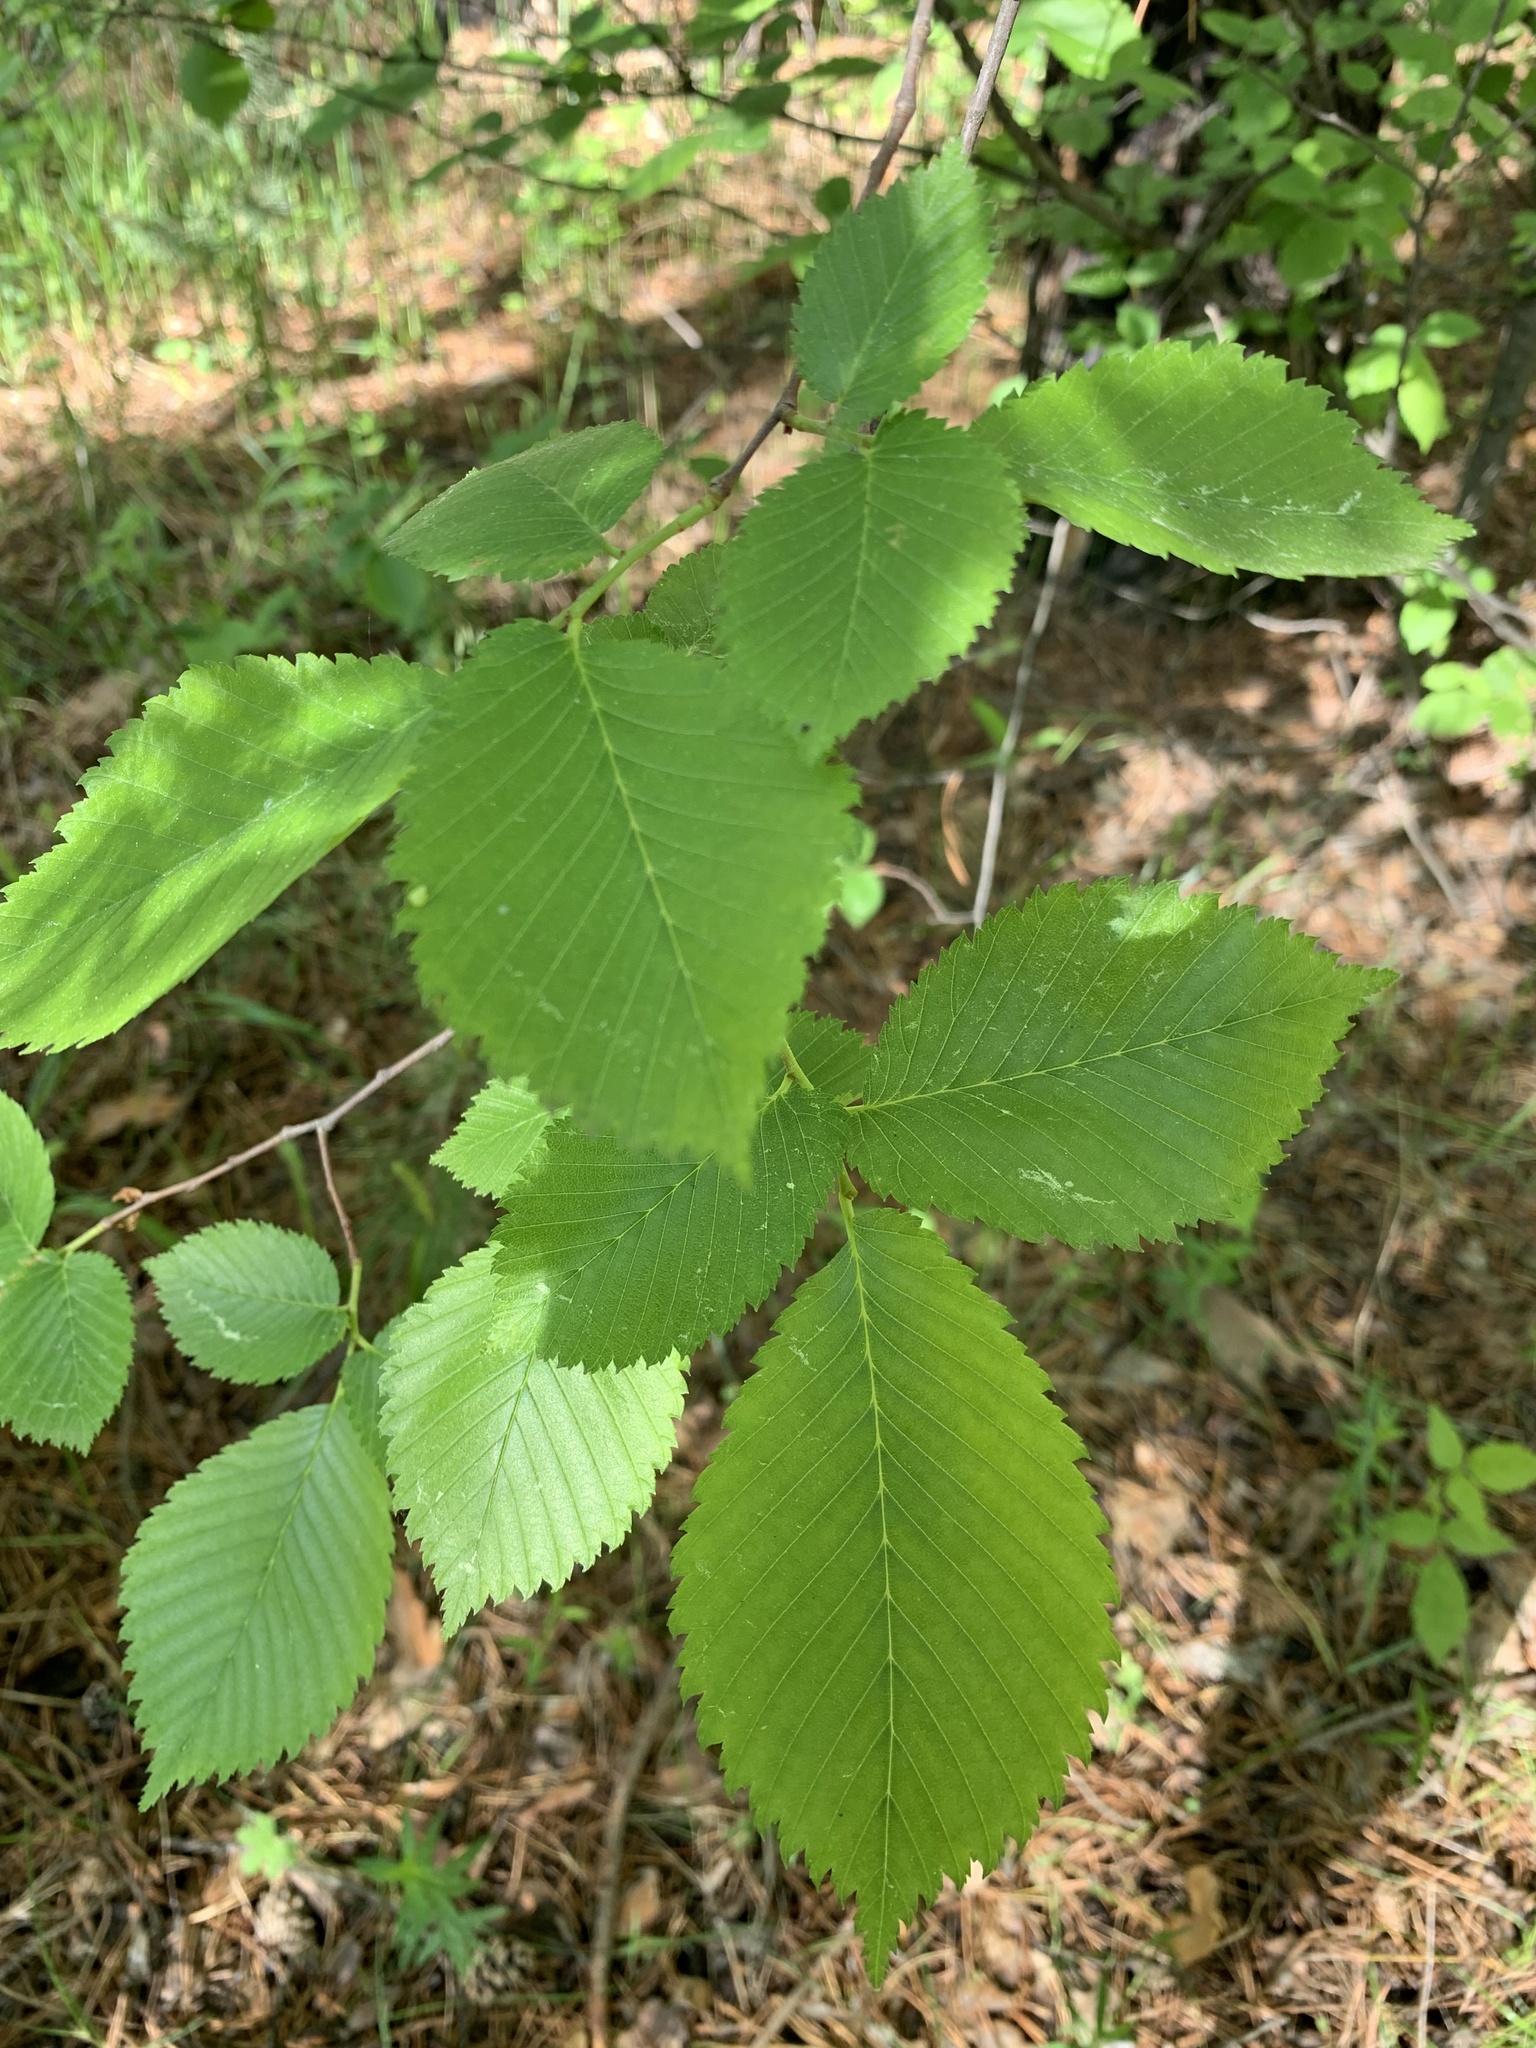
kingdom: Plantae
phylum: Tracheophyta
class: Magnoliopsida
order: Rosales
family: Ulmaceae
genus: Ulmus
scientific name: Ulmus laevis
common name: European white-elm
